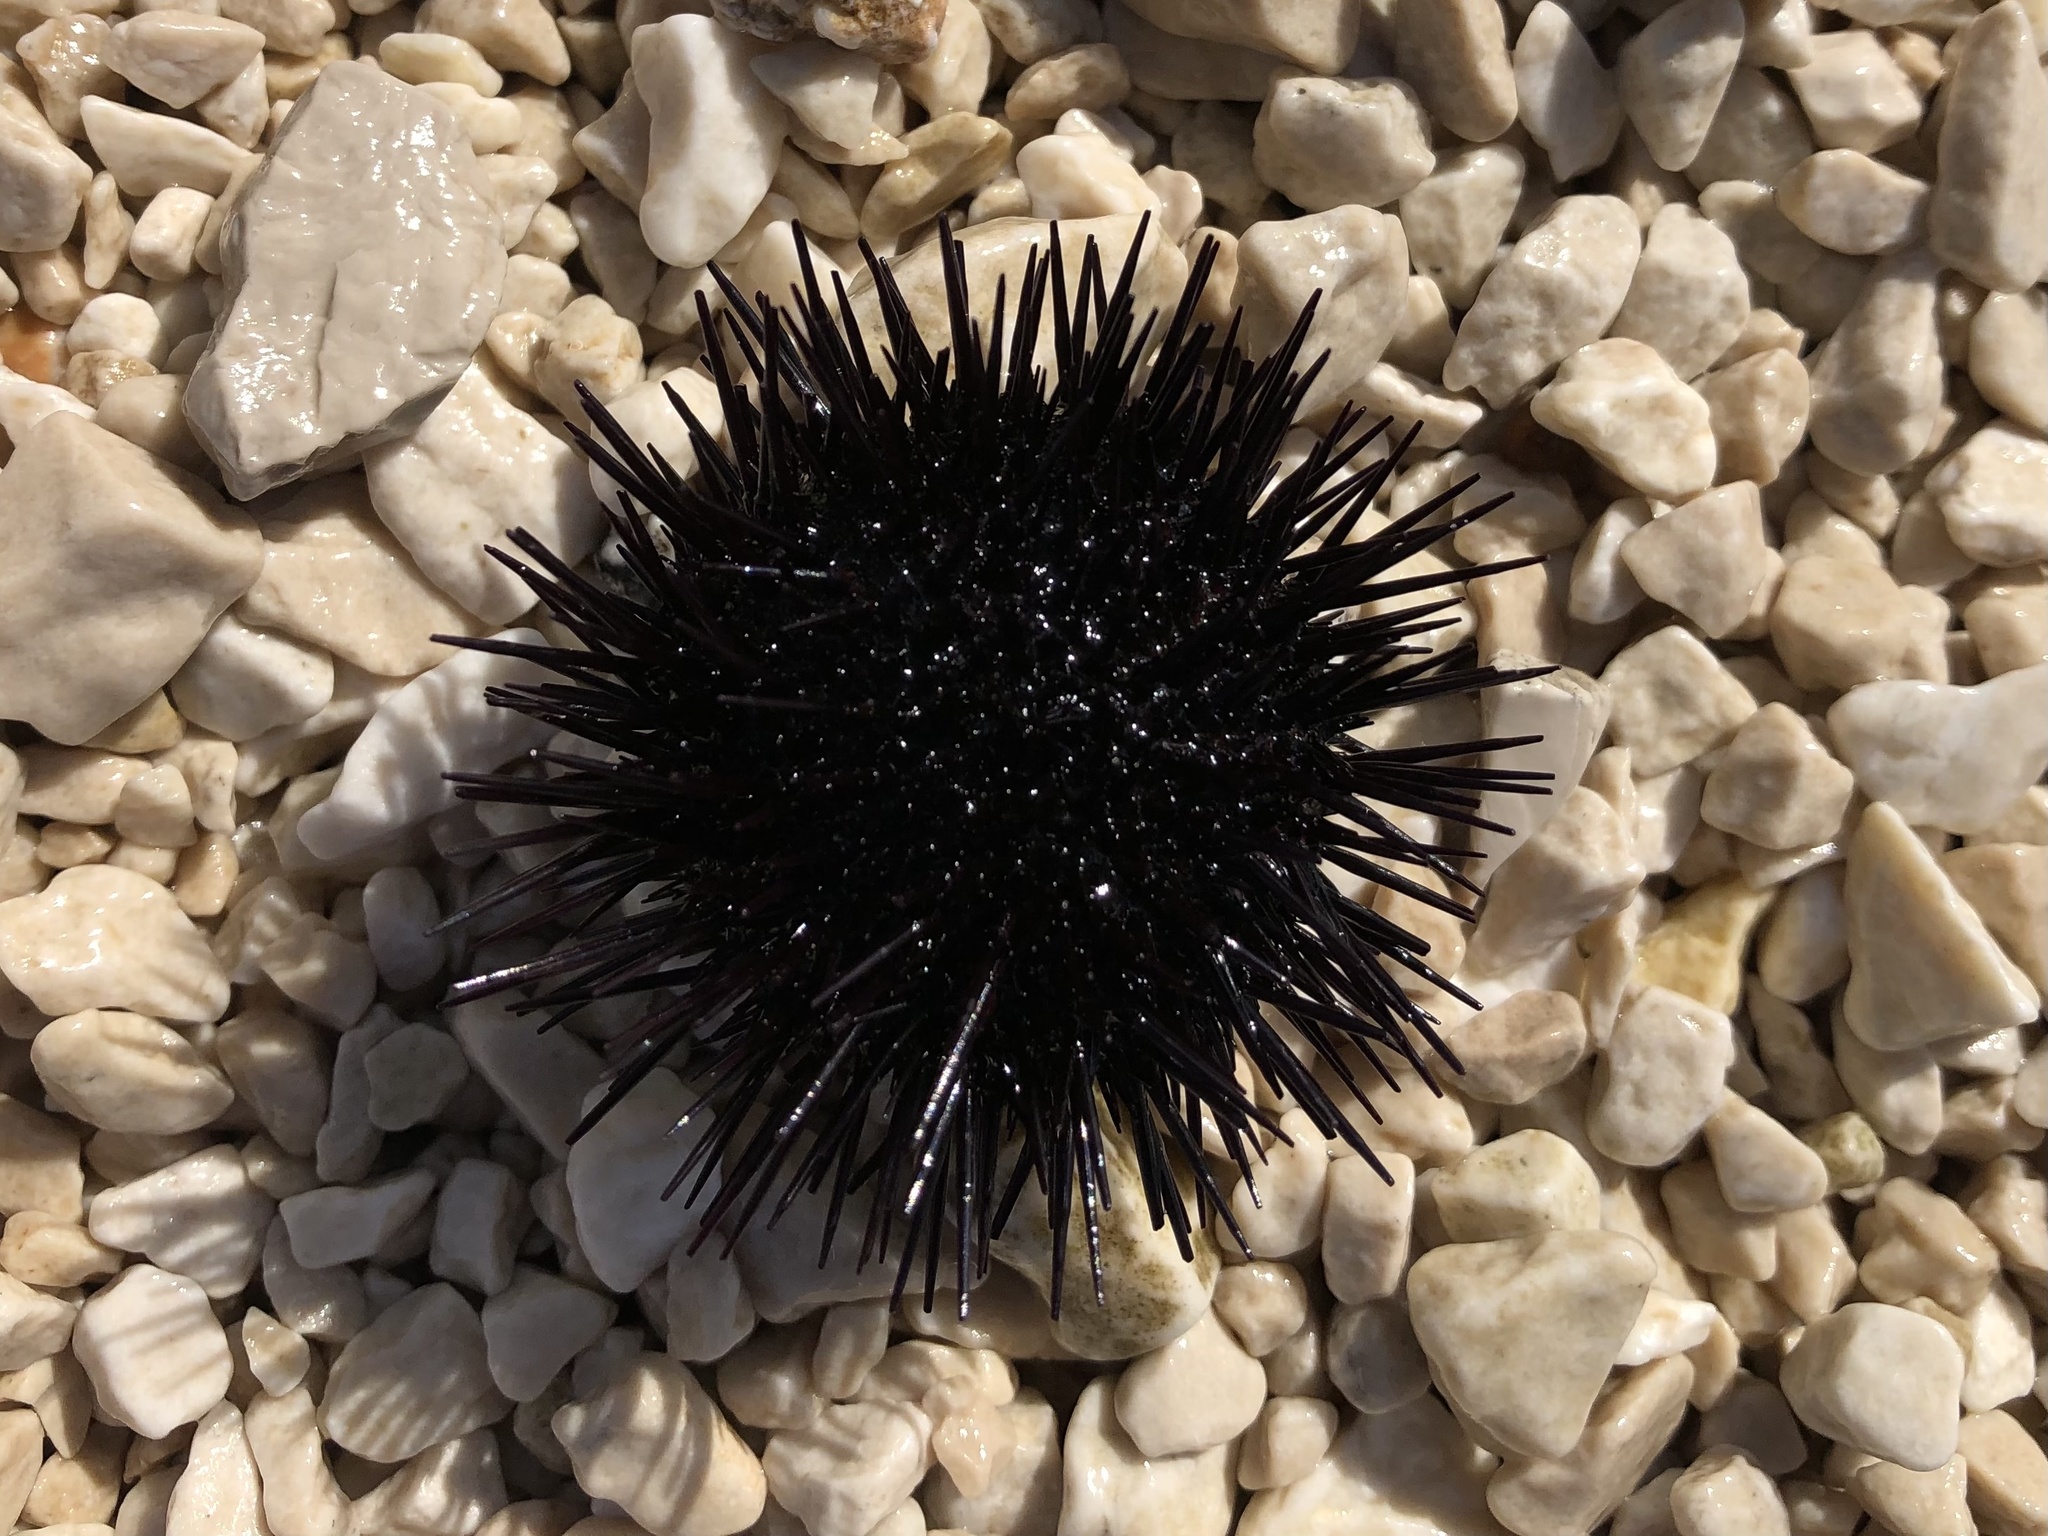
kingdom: Animalia
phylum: Echinodermata
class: Echinoidea
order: Camarodonta
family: Parechinidae
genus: Paracentrotus
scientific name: Paracentrotus lividus
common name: Purple sea urchin
